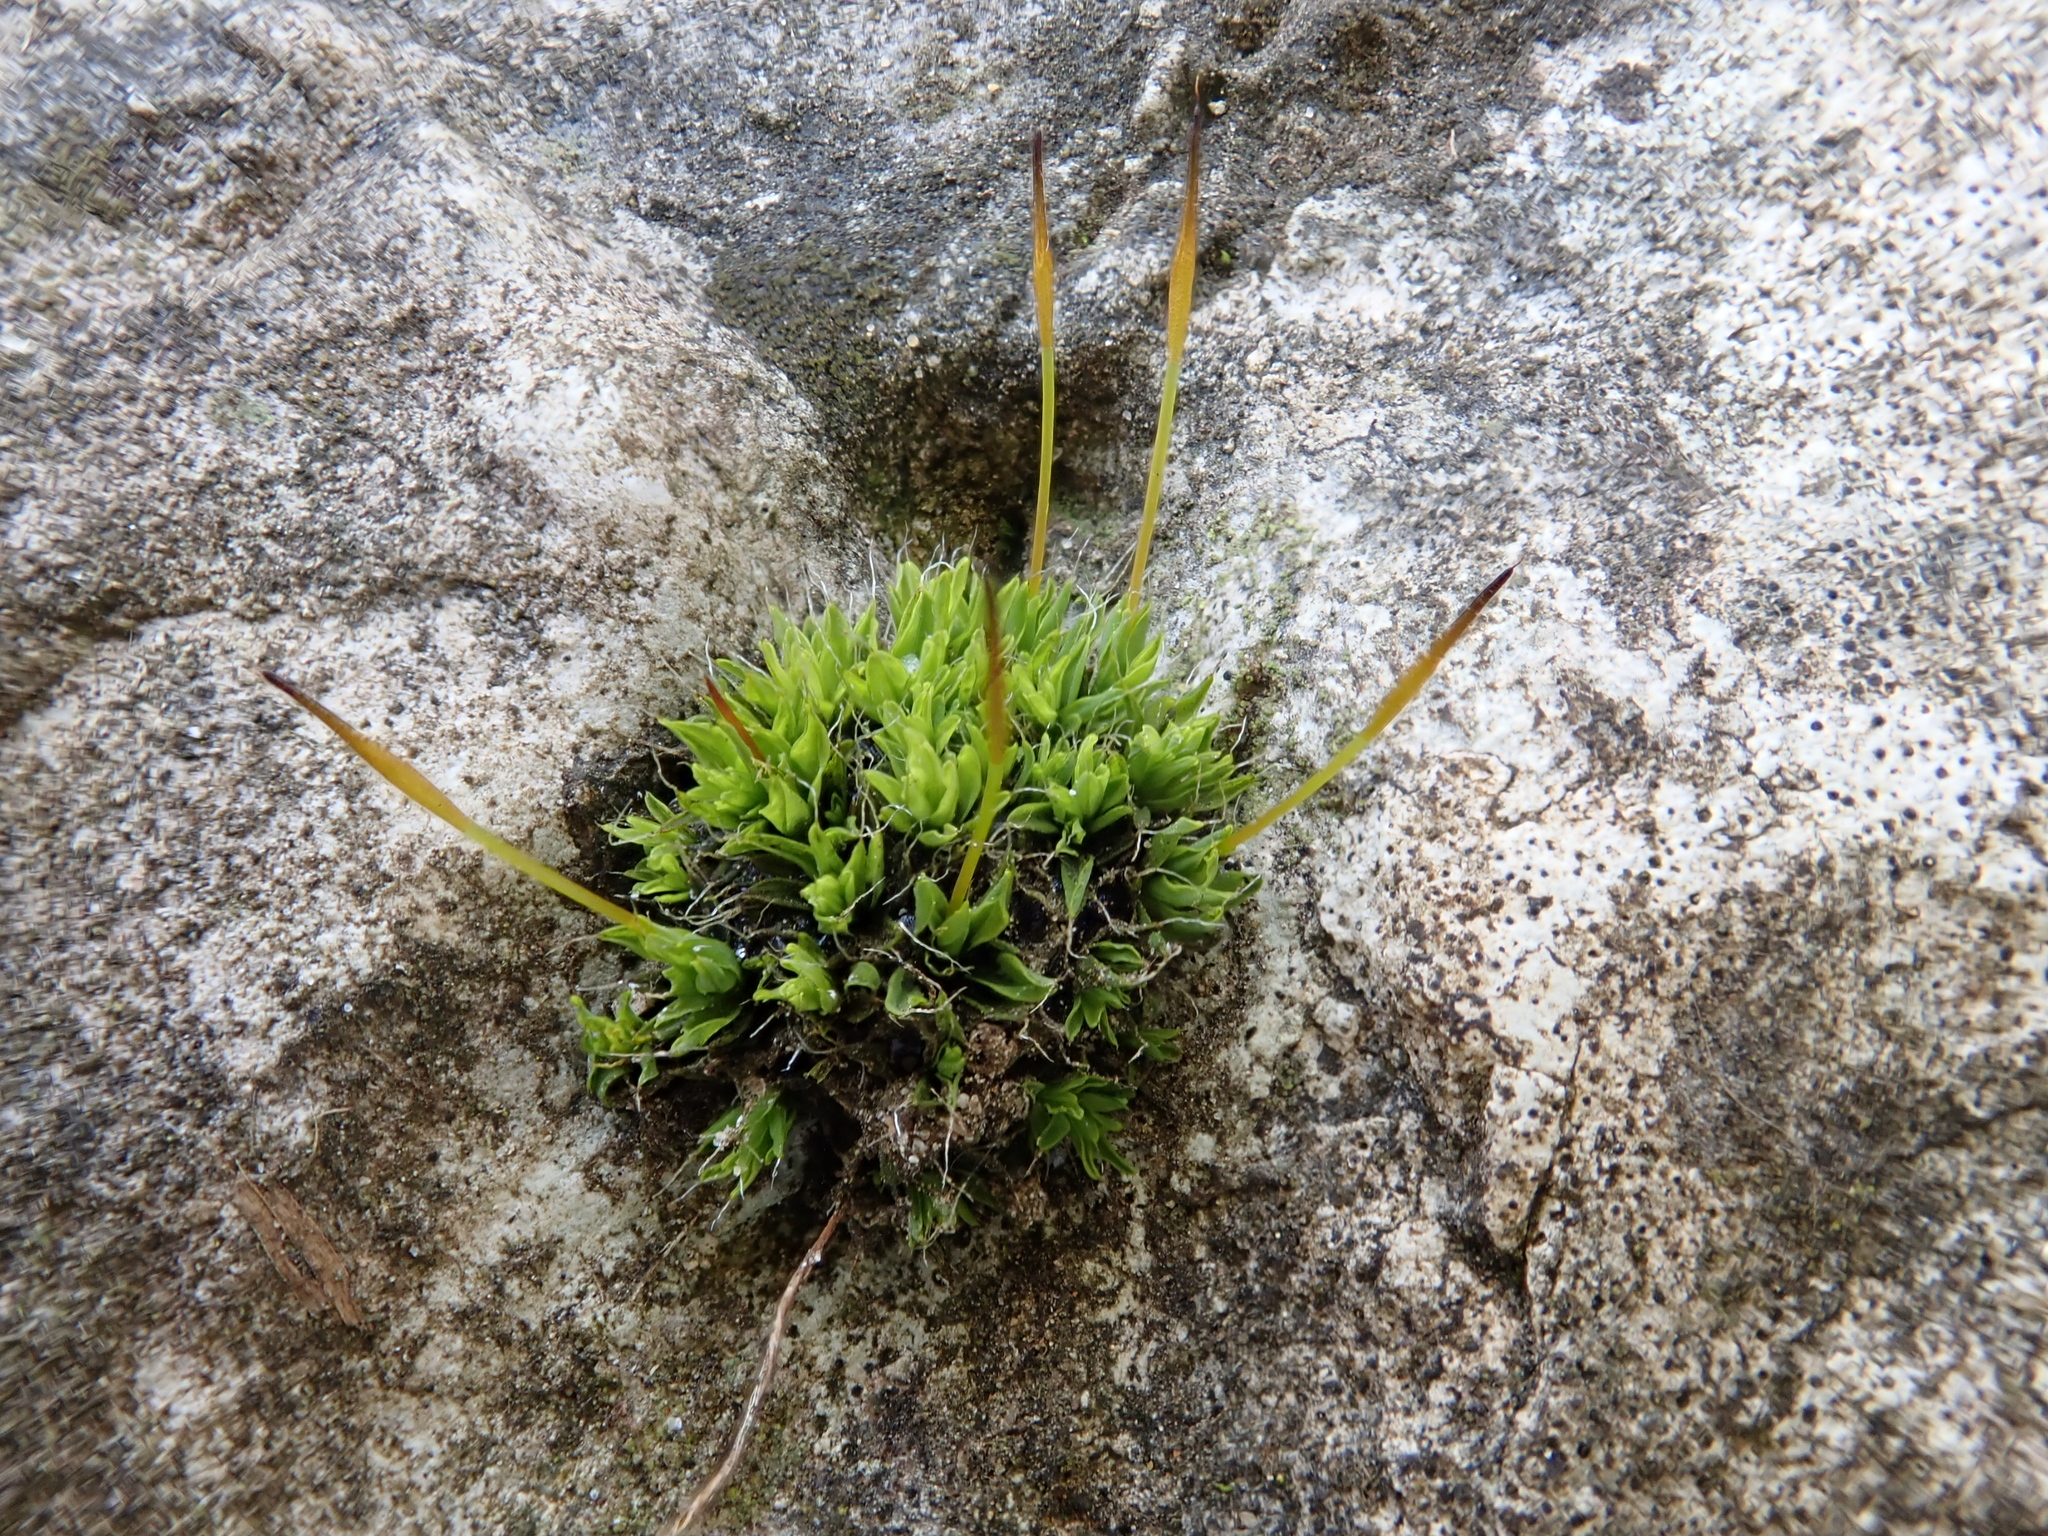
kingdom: Plantae
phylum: Bryophyta
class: Bryopsida
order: Pottiales
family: Pottiaceae
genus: Tortula
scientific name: Tortula muralis
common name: Wall screw-moss
